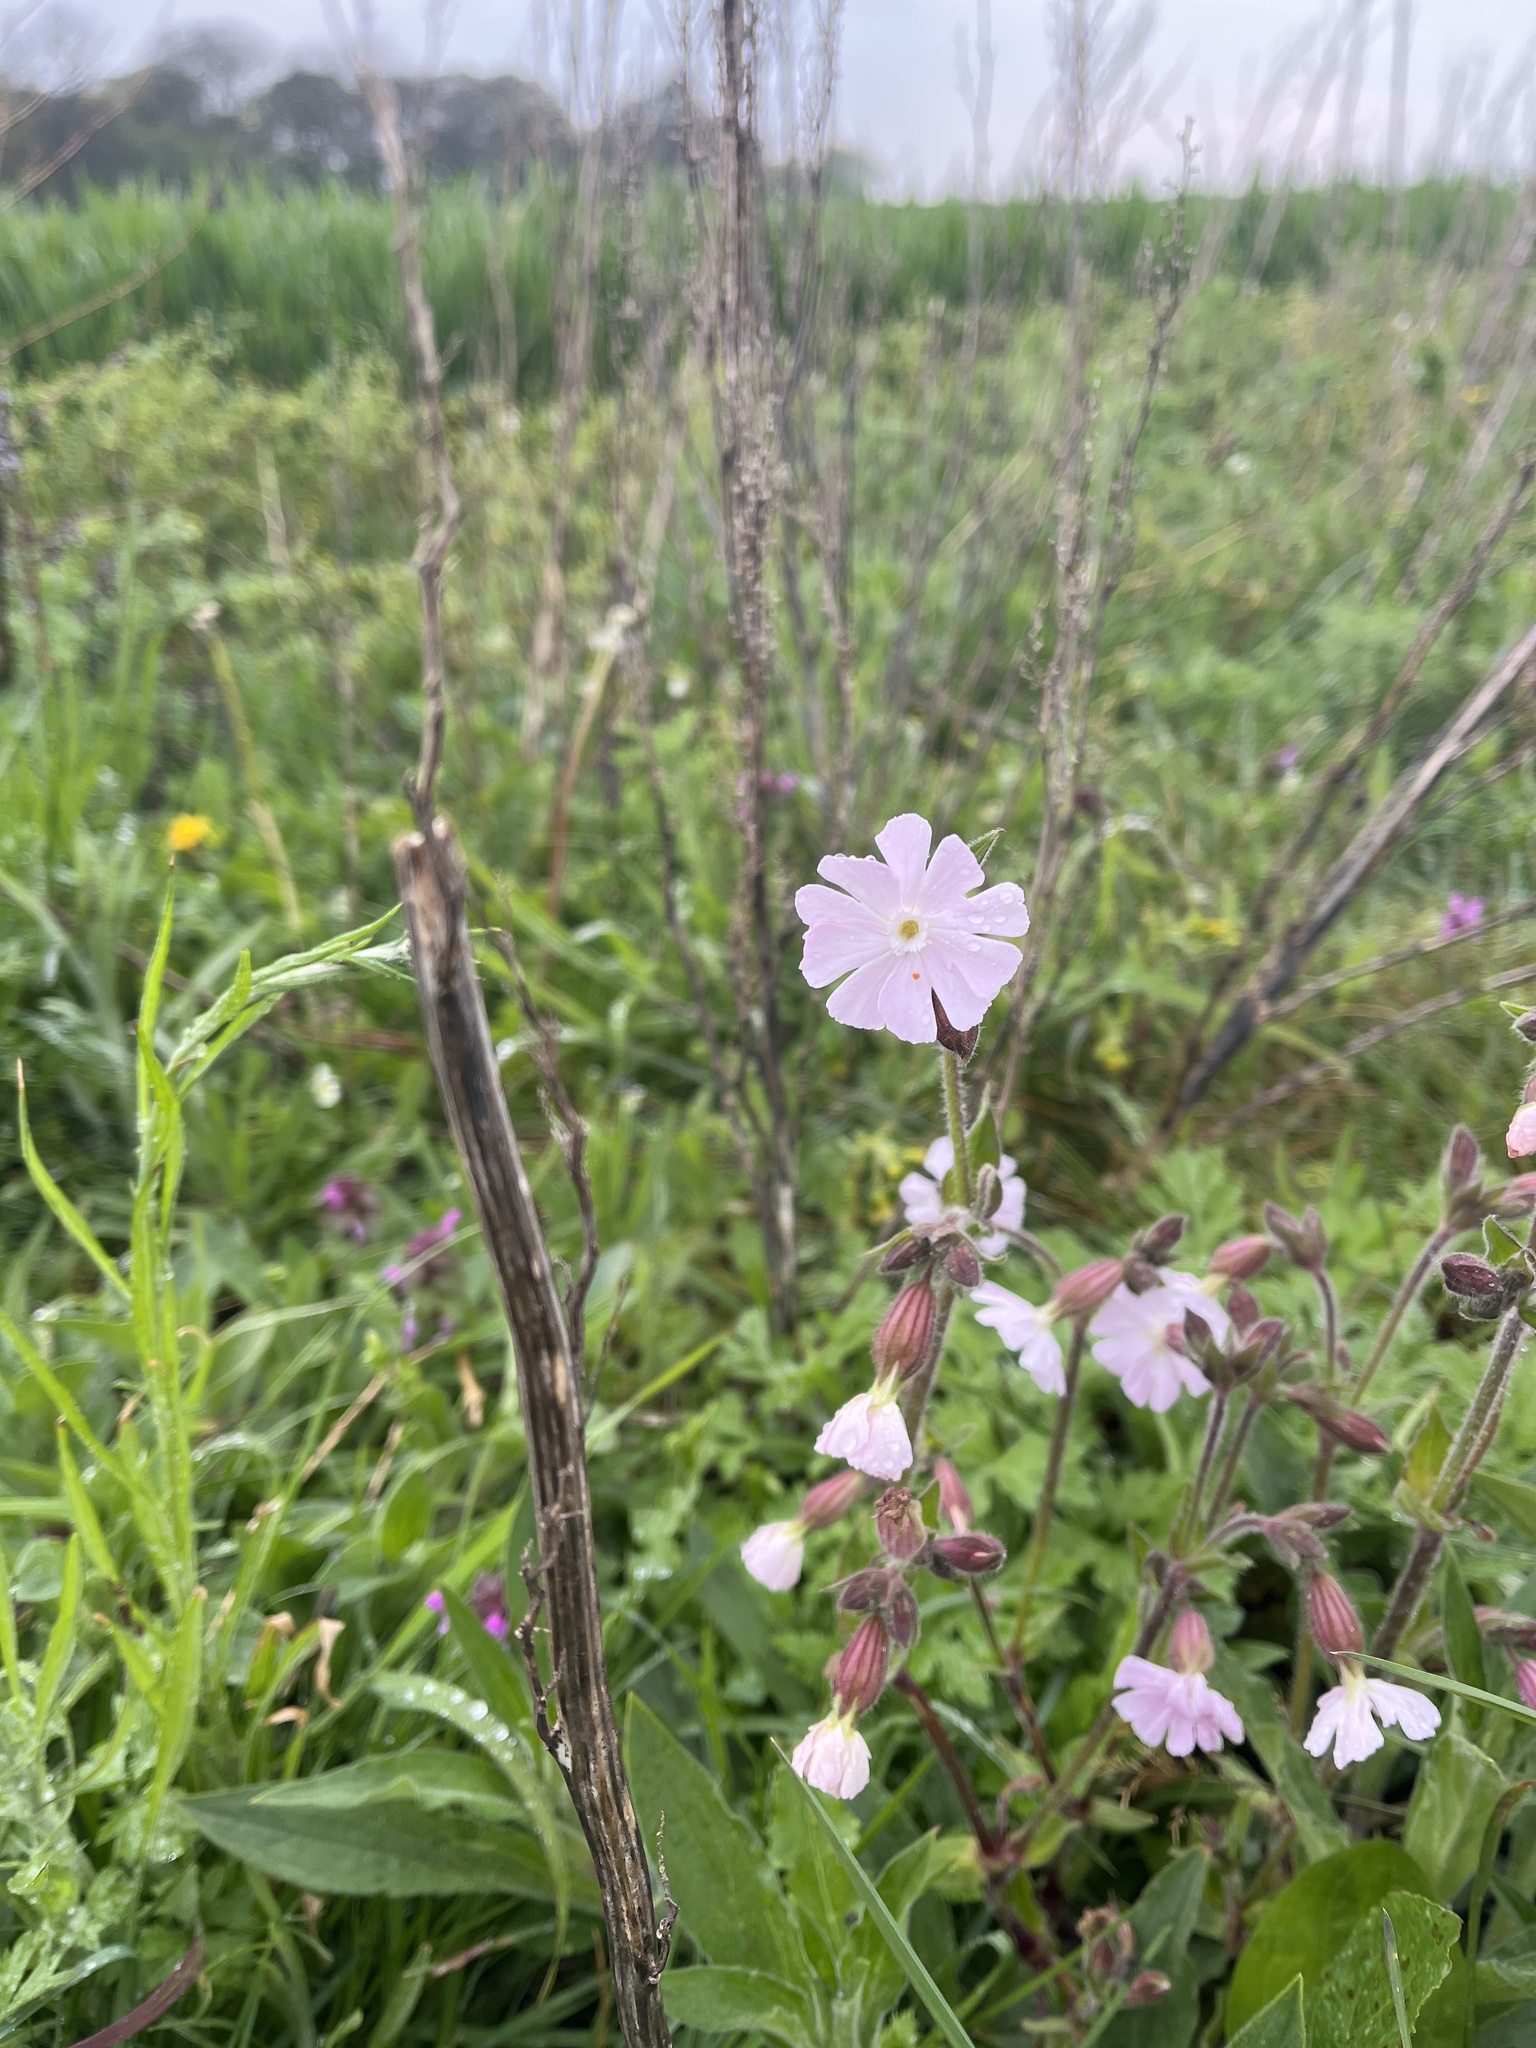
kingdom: Plantae
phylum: Tracheophyta
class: Magnoliopsida
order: Caryophyllales
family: Caryophyllaceae
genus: Silene
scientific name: Silene hampeana
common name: Catchfly
